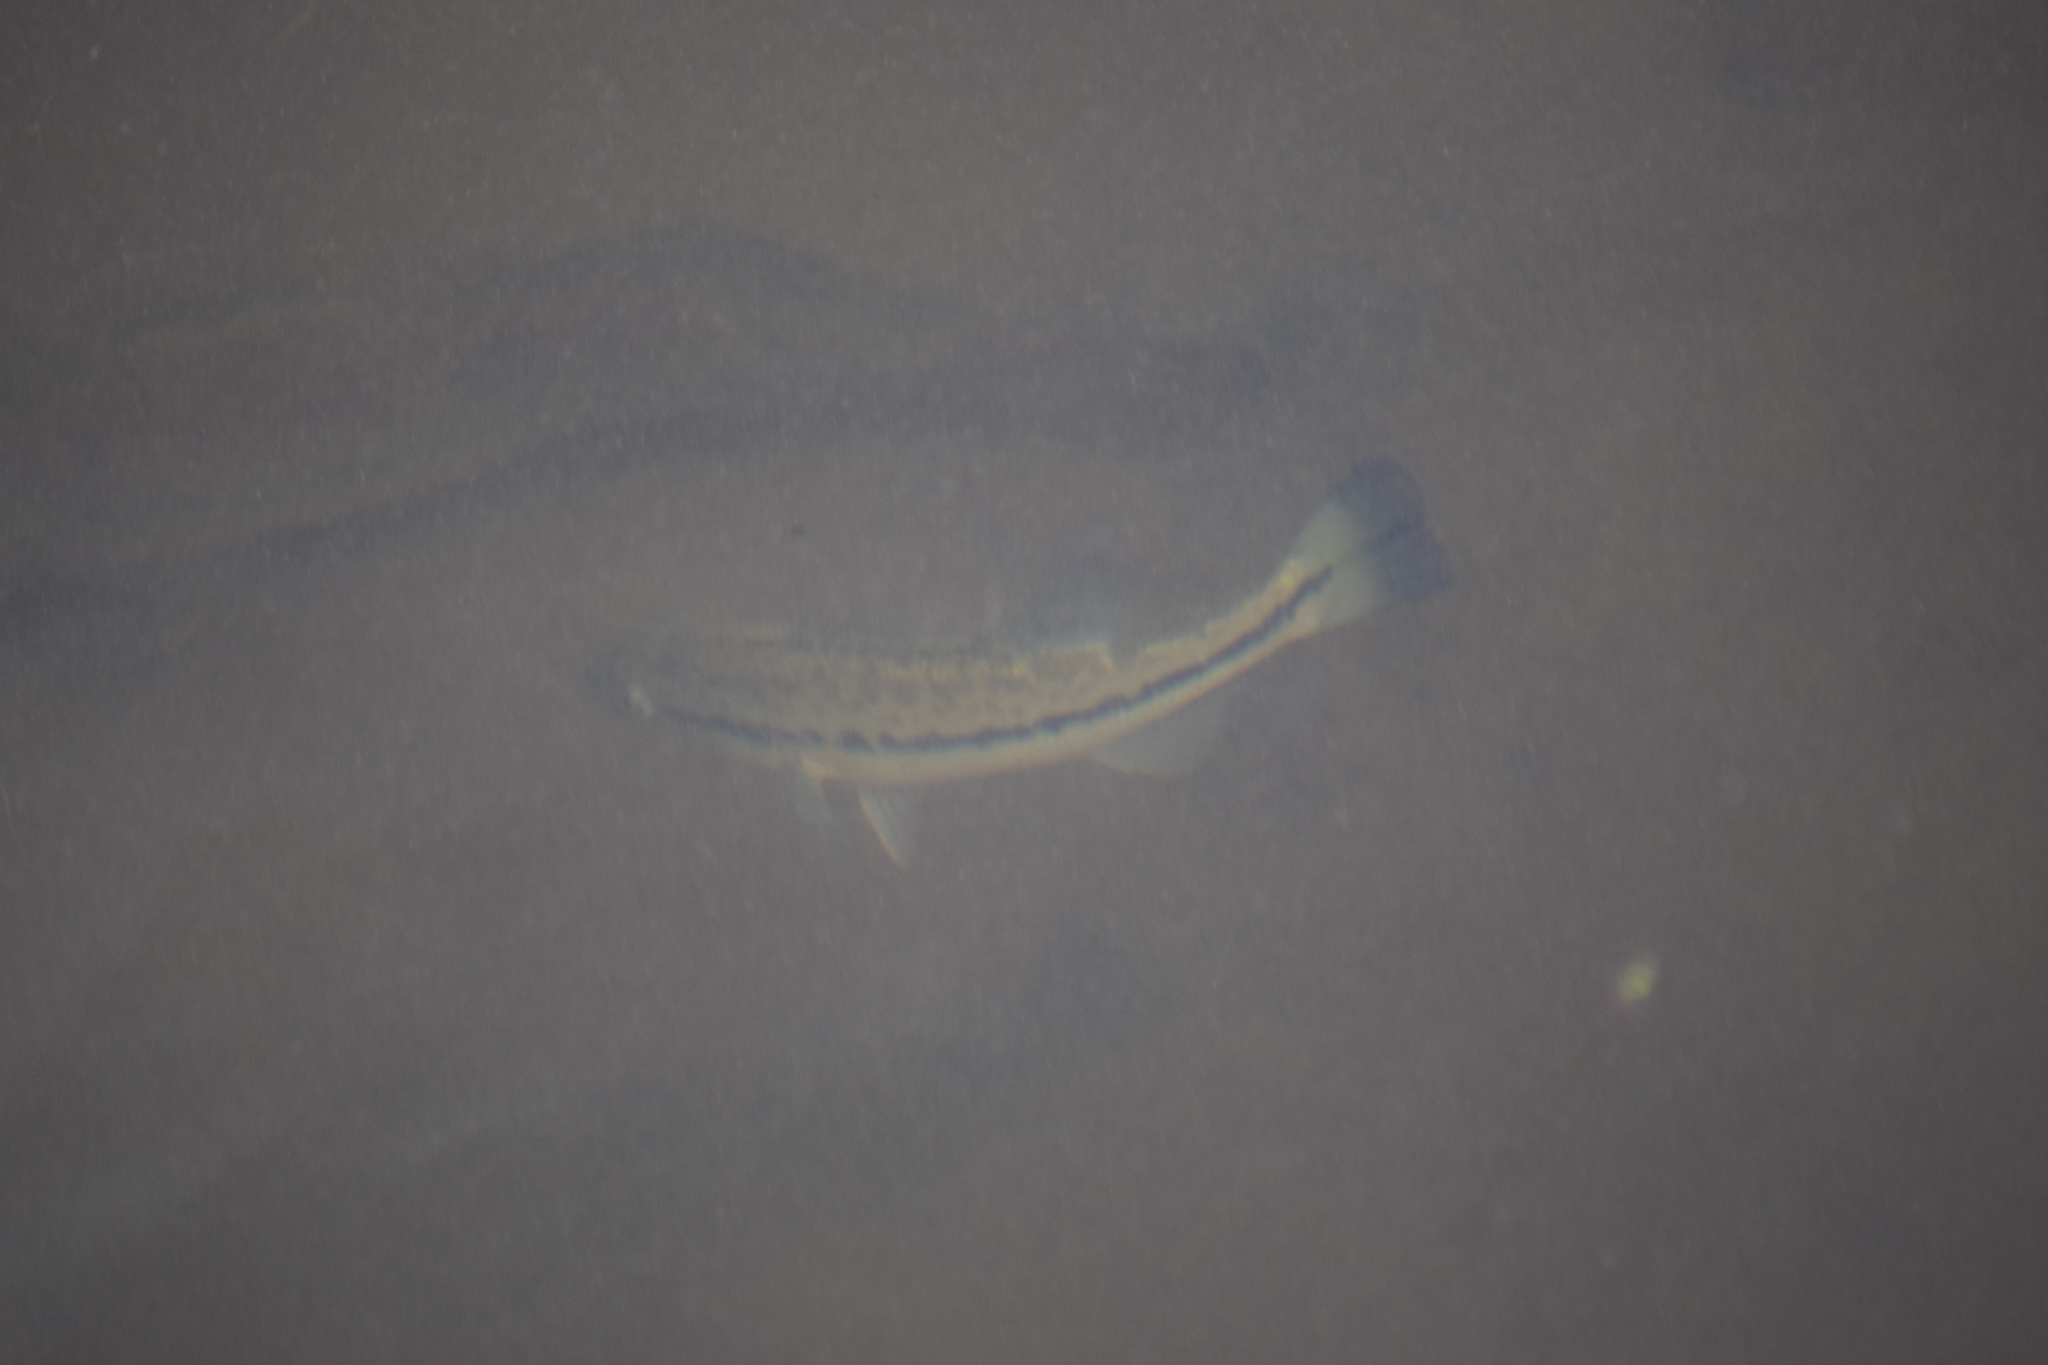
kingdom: Animalia
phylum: Chordata
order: Perciformes
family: Centrarchidae
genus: Micropterus
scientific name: Micropterus
